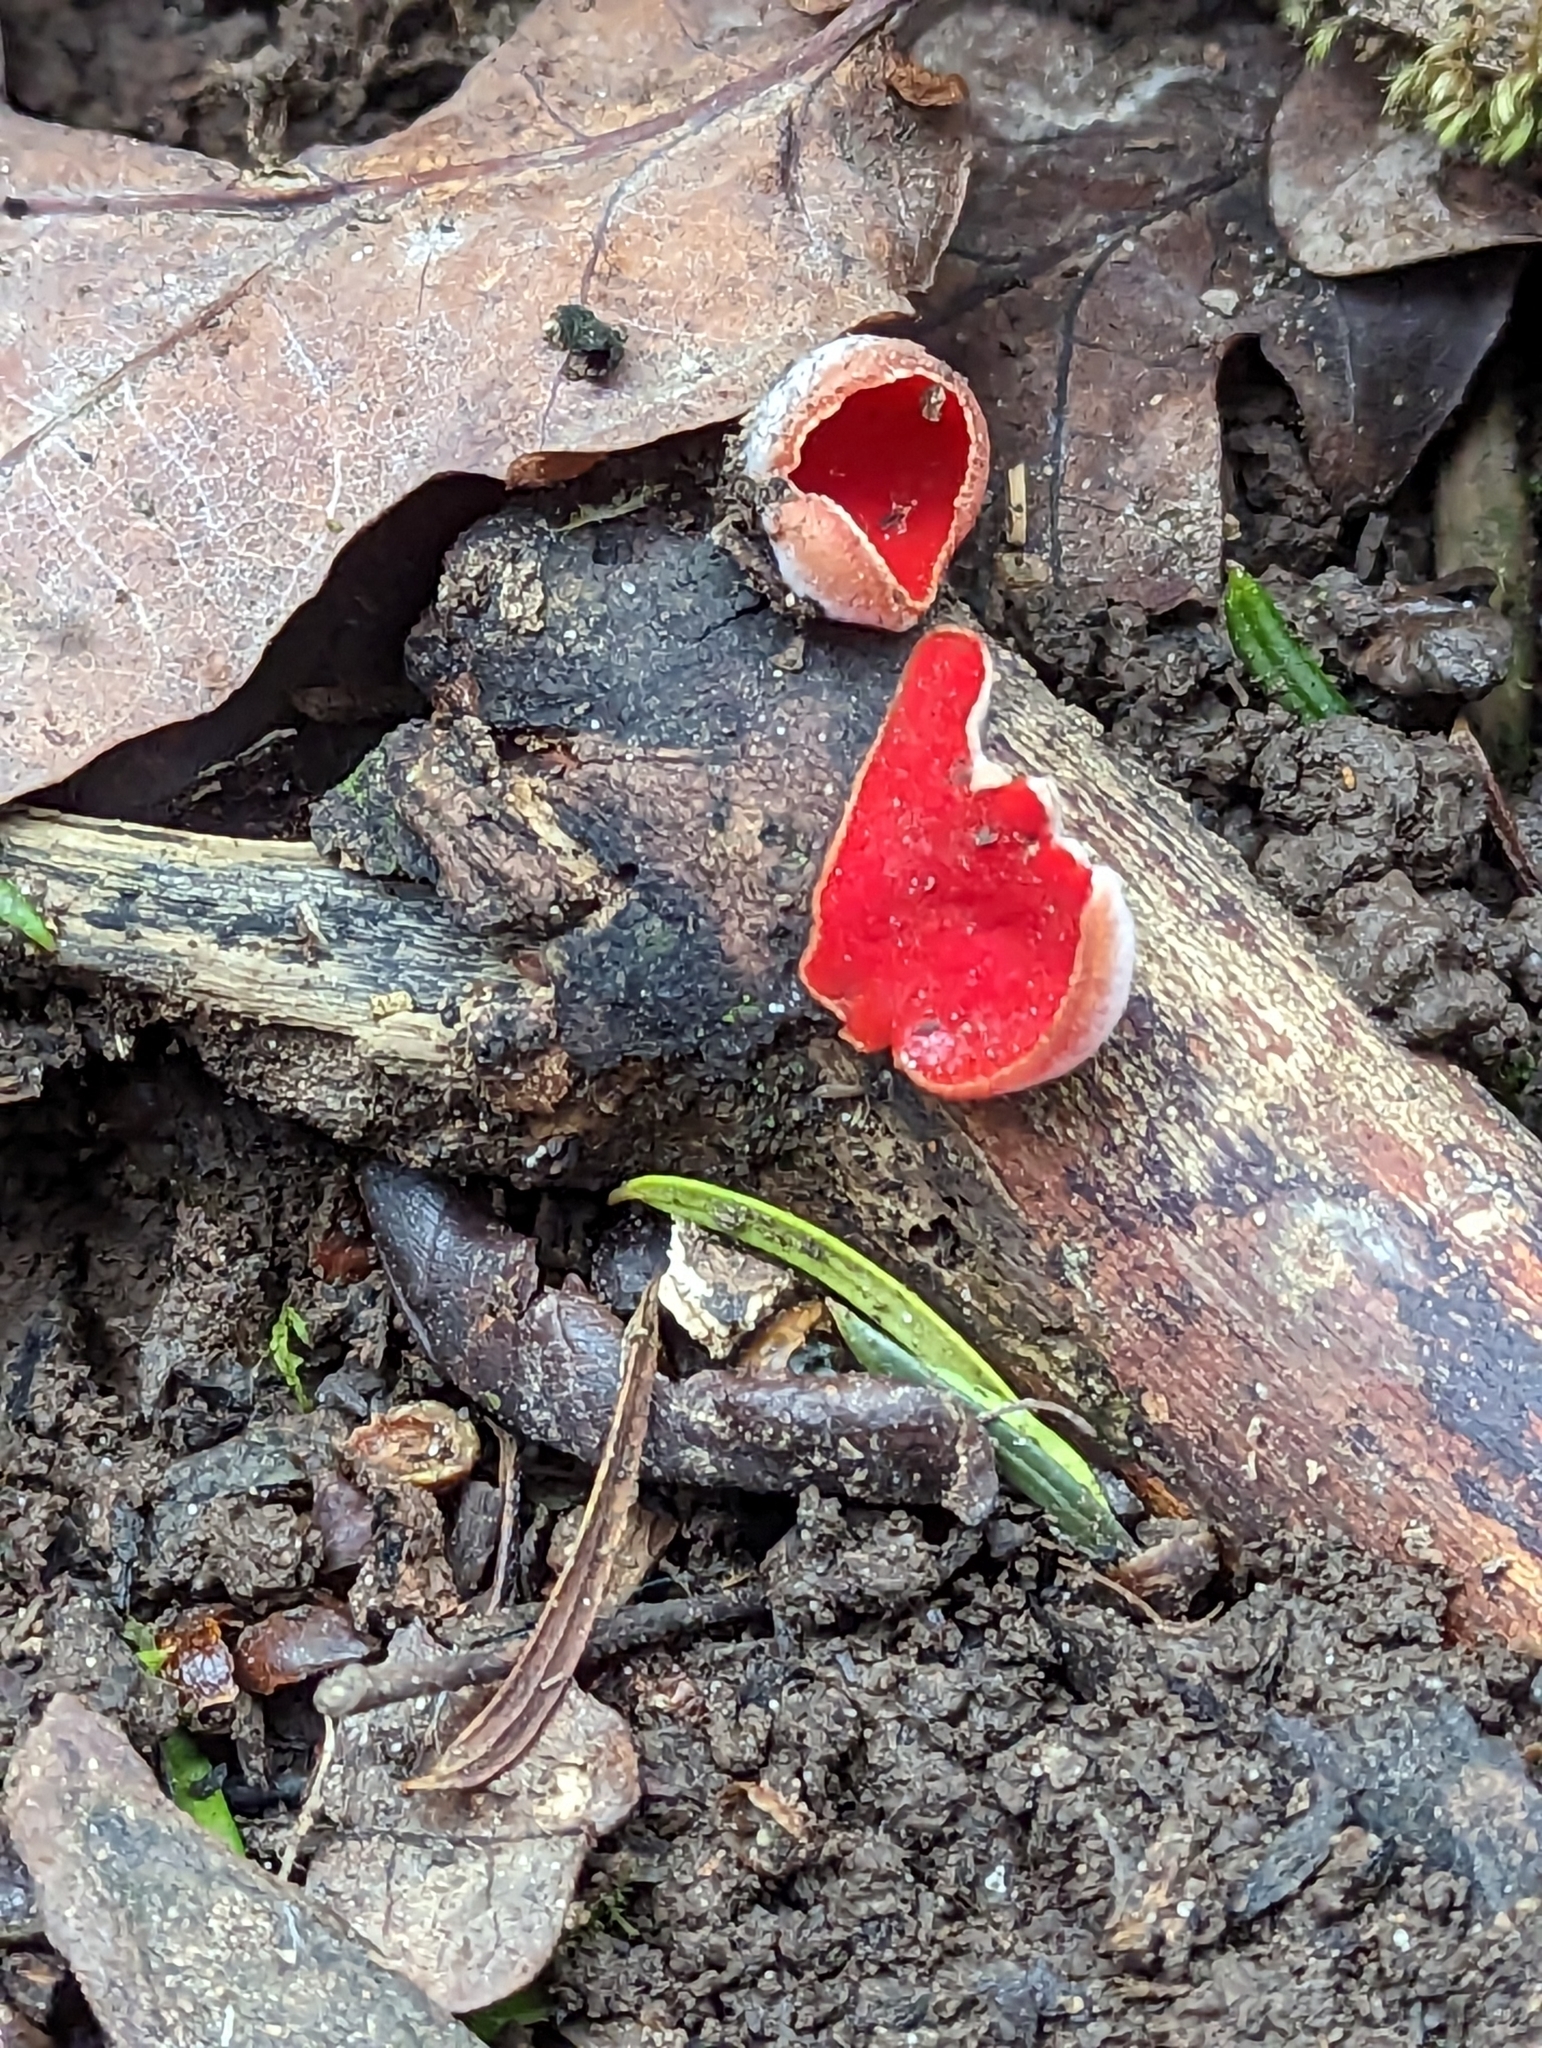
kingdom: Fungi
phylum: Ascomycota
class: Pezizomycetes
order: Pezizales
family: Sarcoscyphaceae
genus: Sarcoscypha
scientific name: Sarcoscypha
